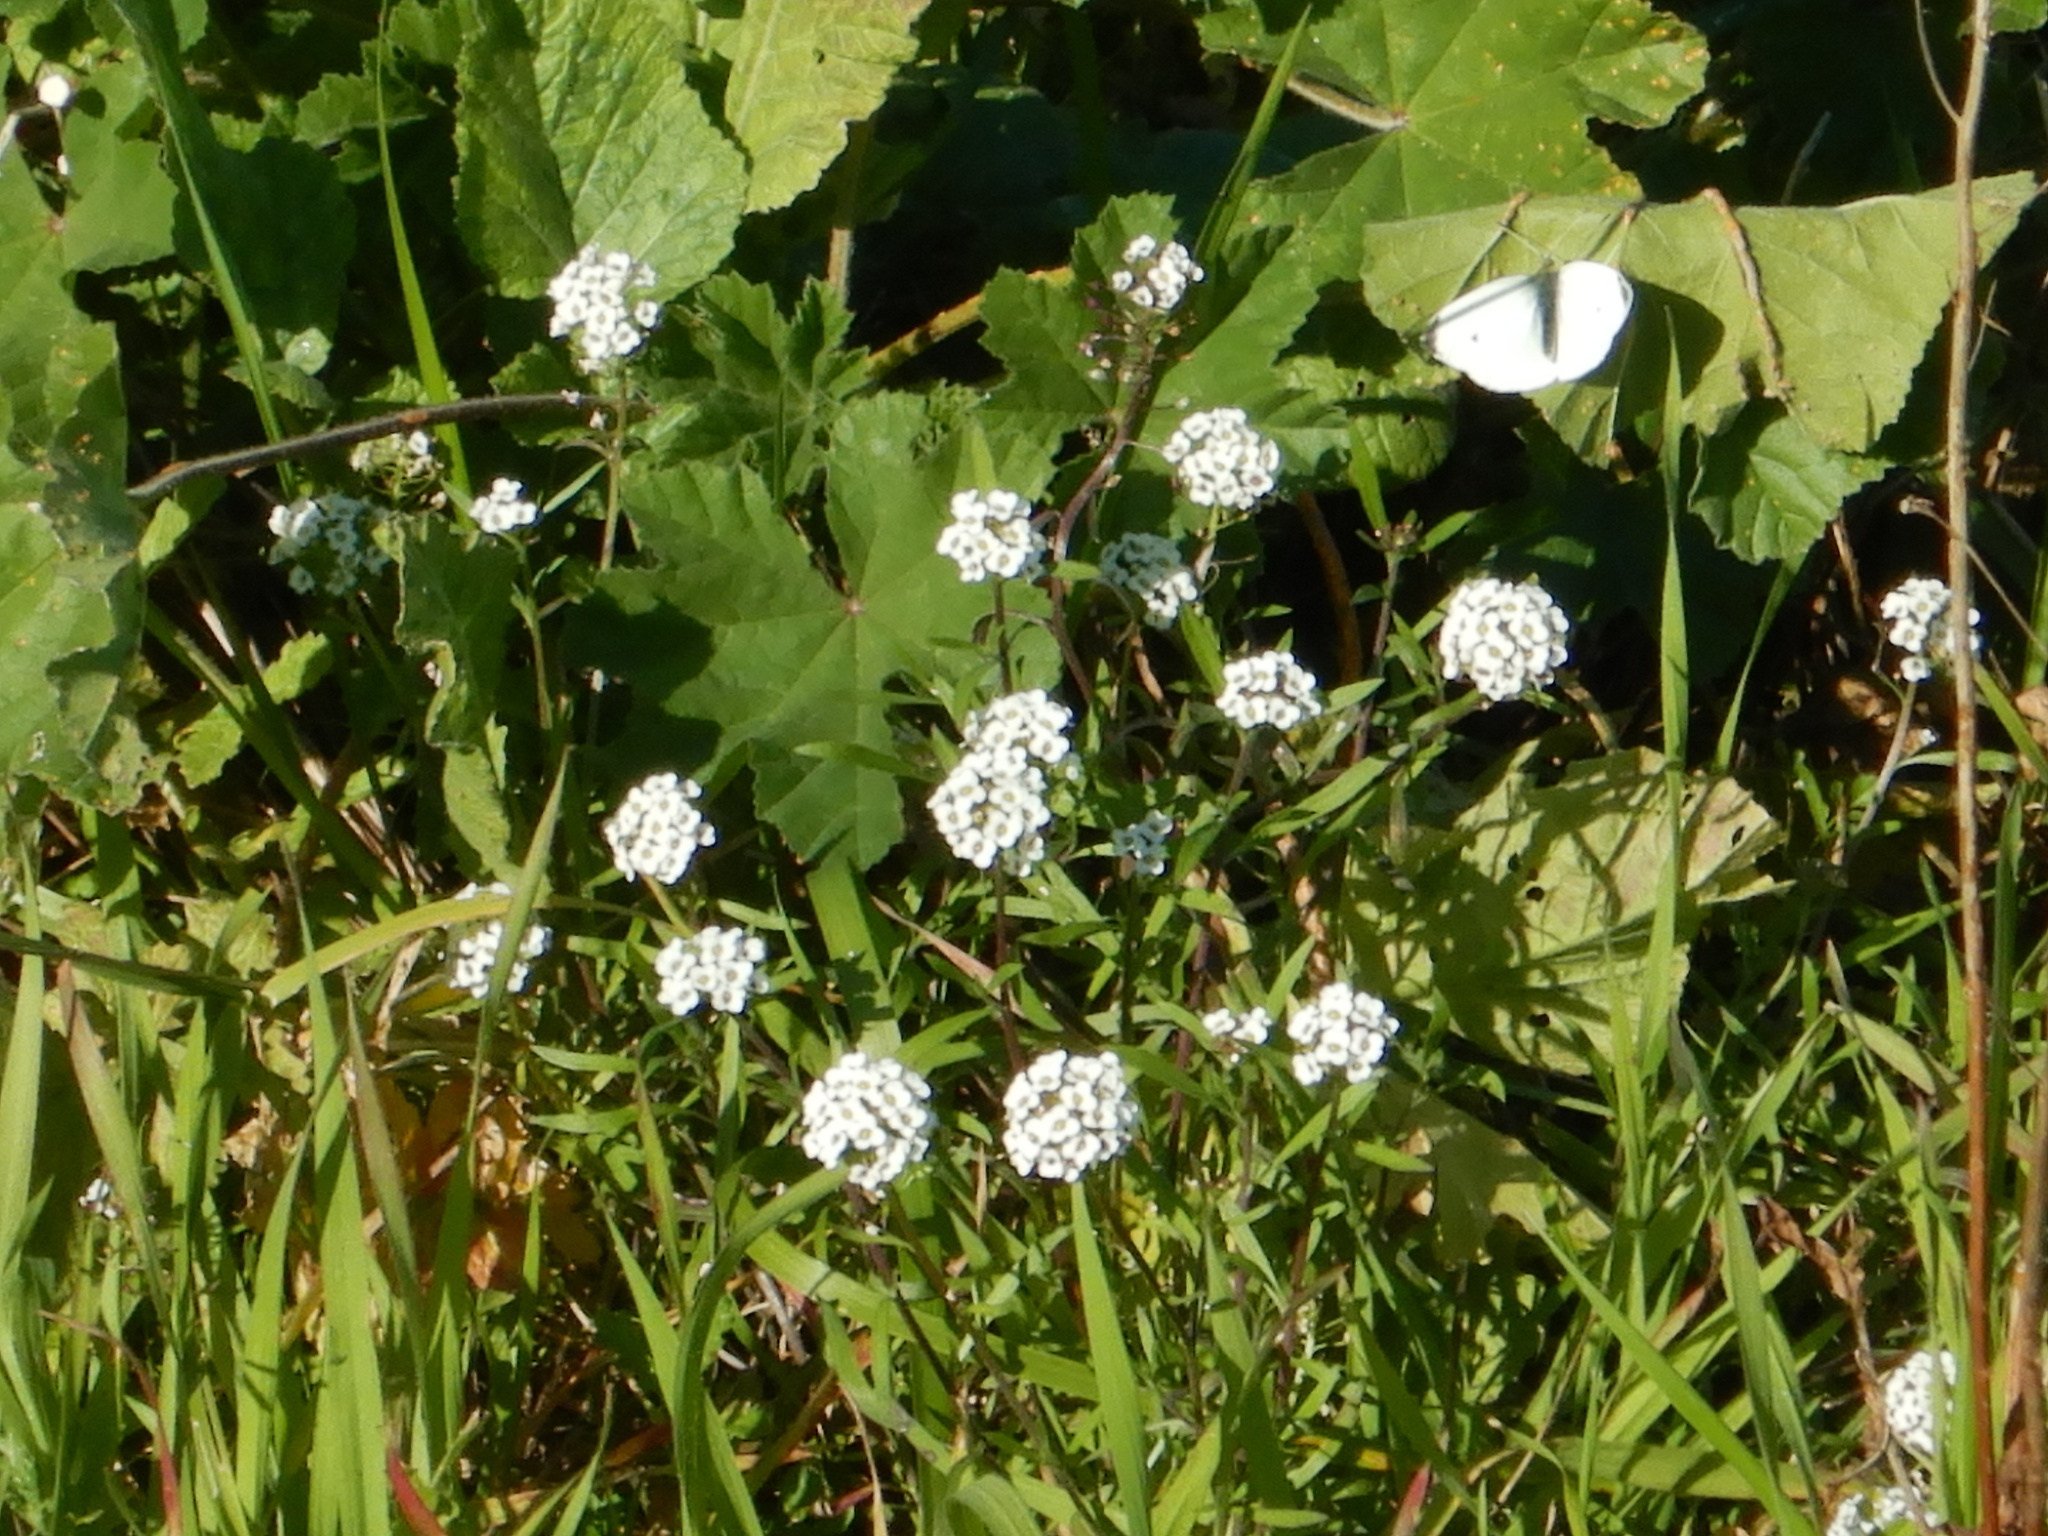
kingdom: Plantae
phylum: Tracheophyta
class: Magnoliopsida
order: Brassicales
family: Brassicaceae
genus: Lobularia
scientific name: Lobularia maritima
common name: Sweet alison
